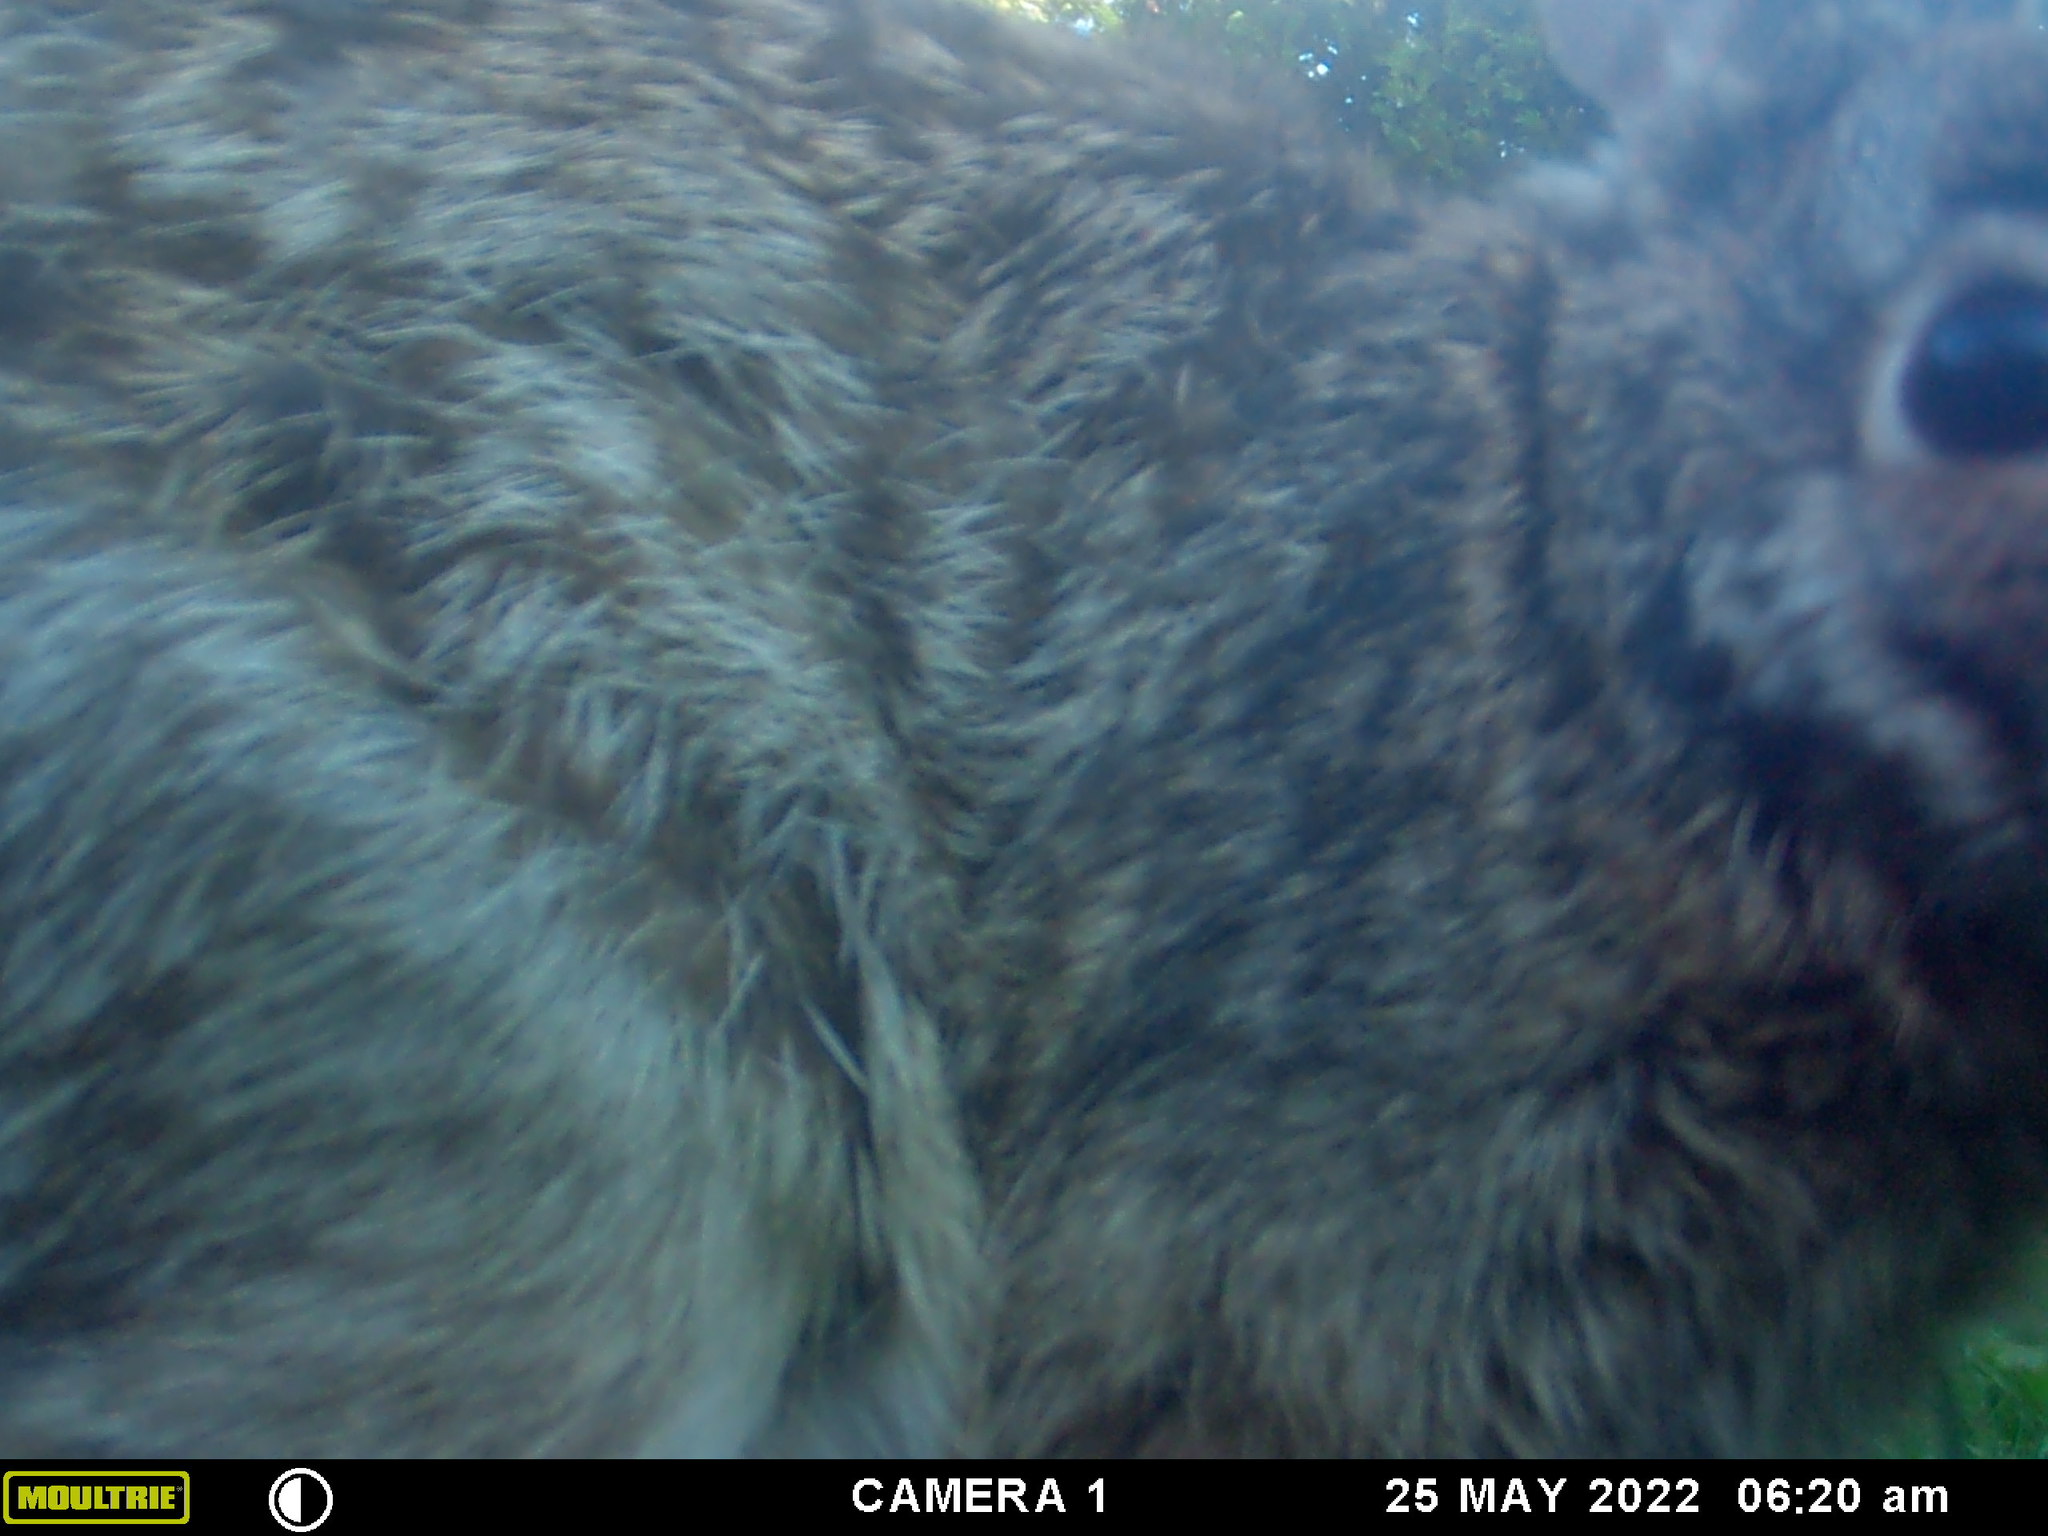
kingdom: Animalia
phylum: Chordata
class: Mammalia
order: Lagomorpha
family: Leporidae
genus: Sylvilagus
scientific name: Sylvilagus floridanus
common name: Eastern cottontail
